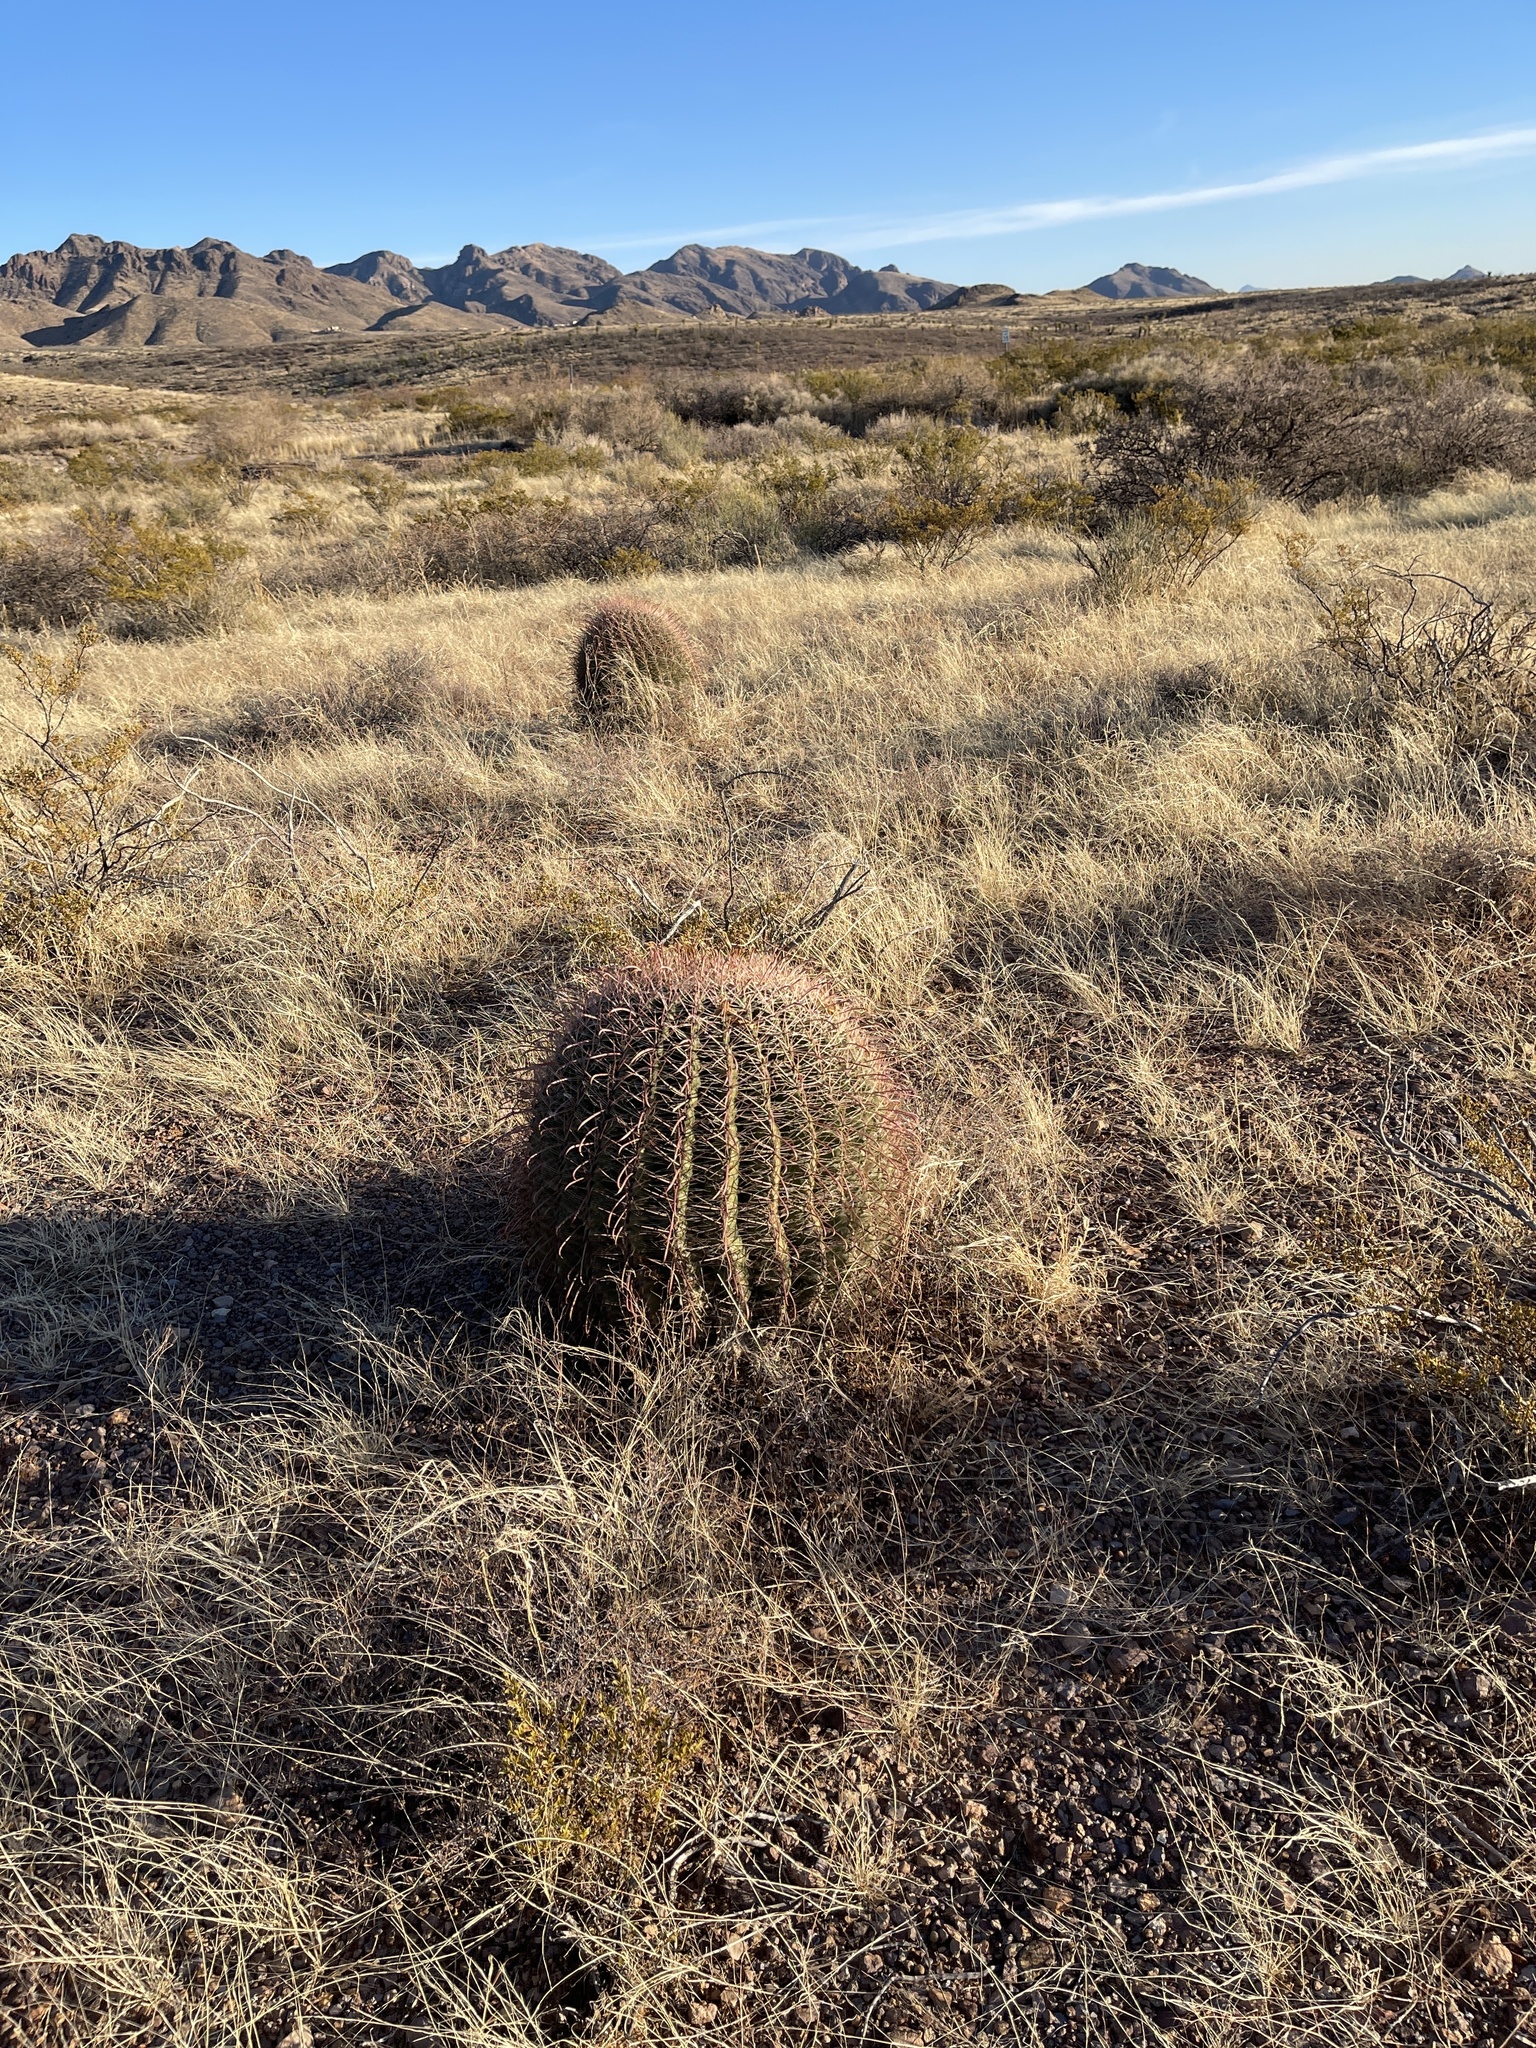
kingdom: Plantae
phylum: Tracheophyta
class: Magnoliopsida
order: Caryophyllales
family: Cactaceae
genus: Ferocactus
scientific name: Ferocactus wislizeni
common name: Candy barrel cactus
